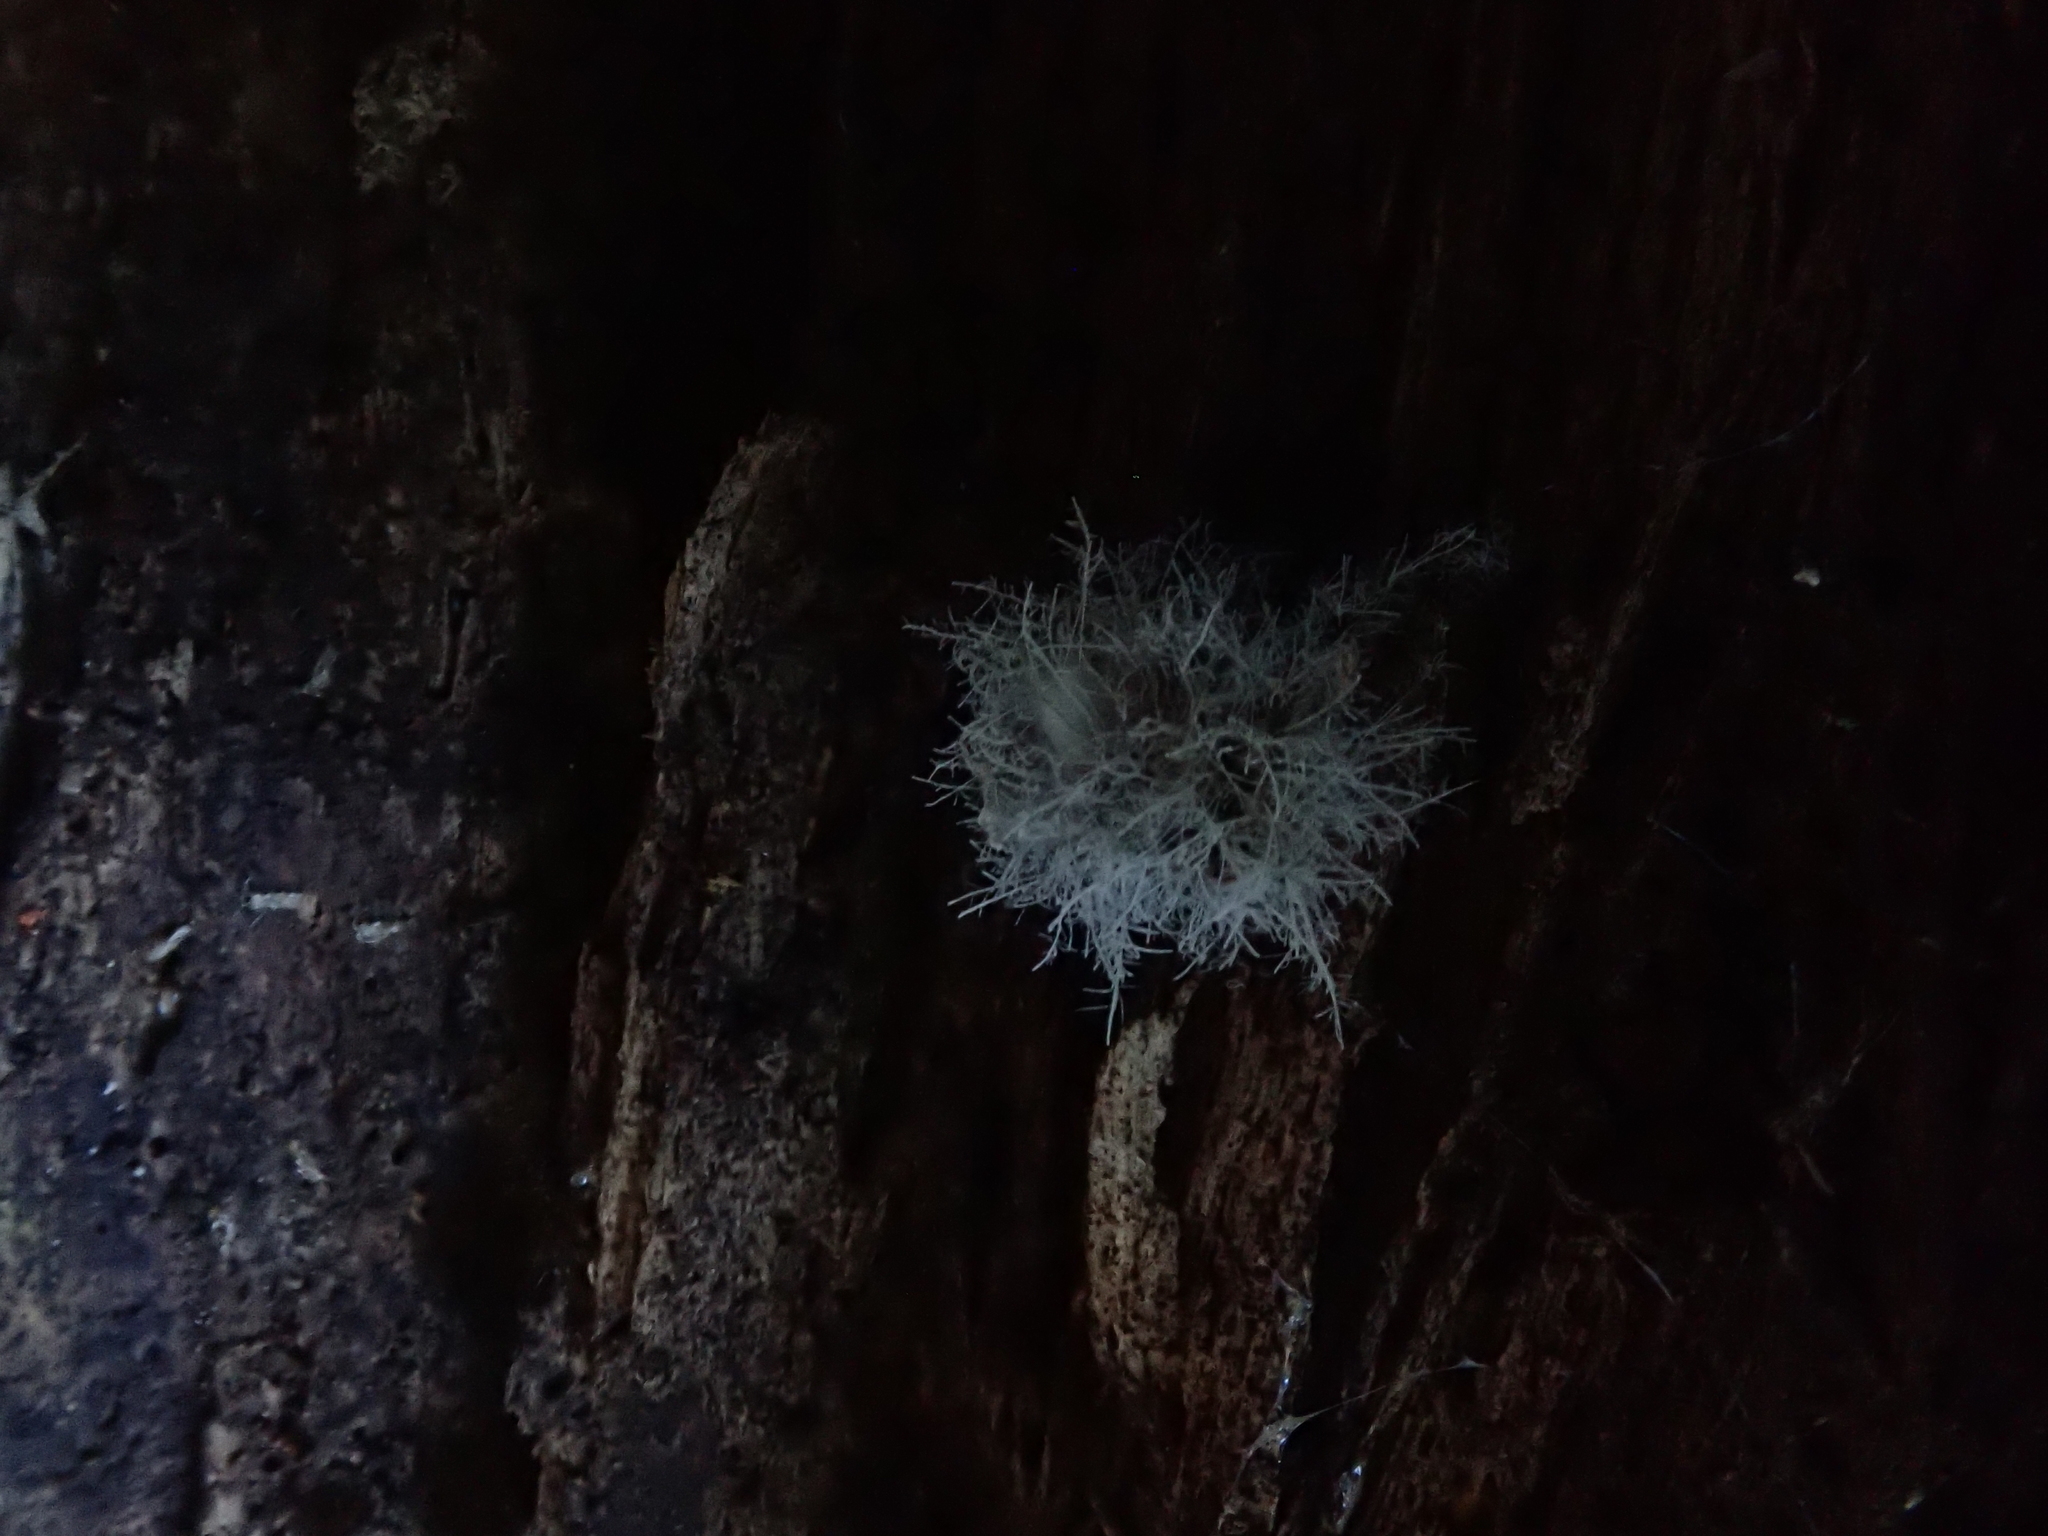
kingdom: Fungi
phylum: Ascomycota
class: Sordariomycetes
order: Hypocreales
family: Tilachlidiaceae
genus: Tilachlidium
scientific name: Tilachlidium brachiatum
